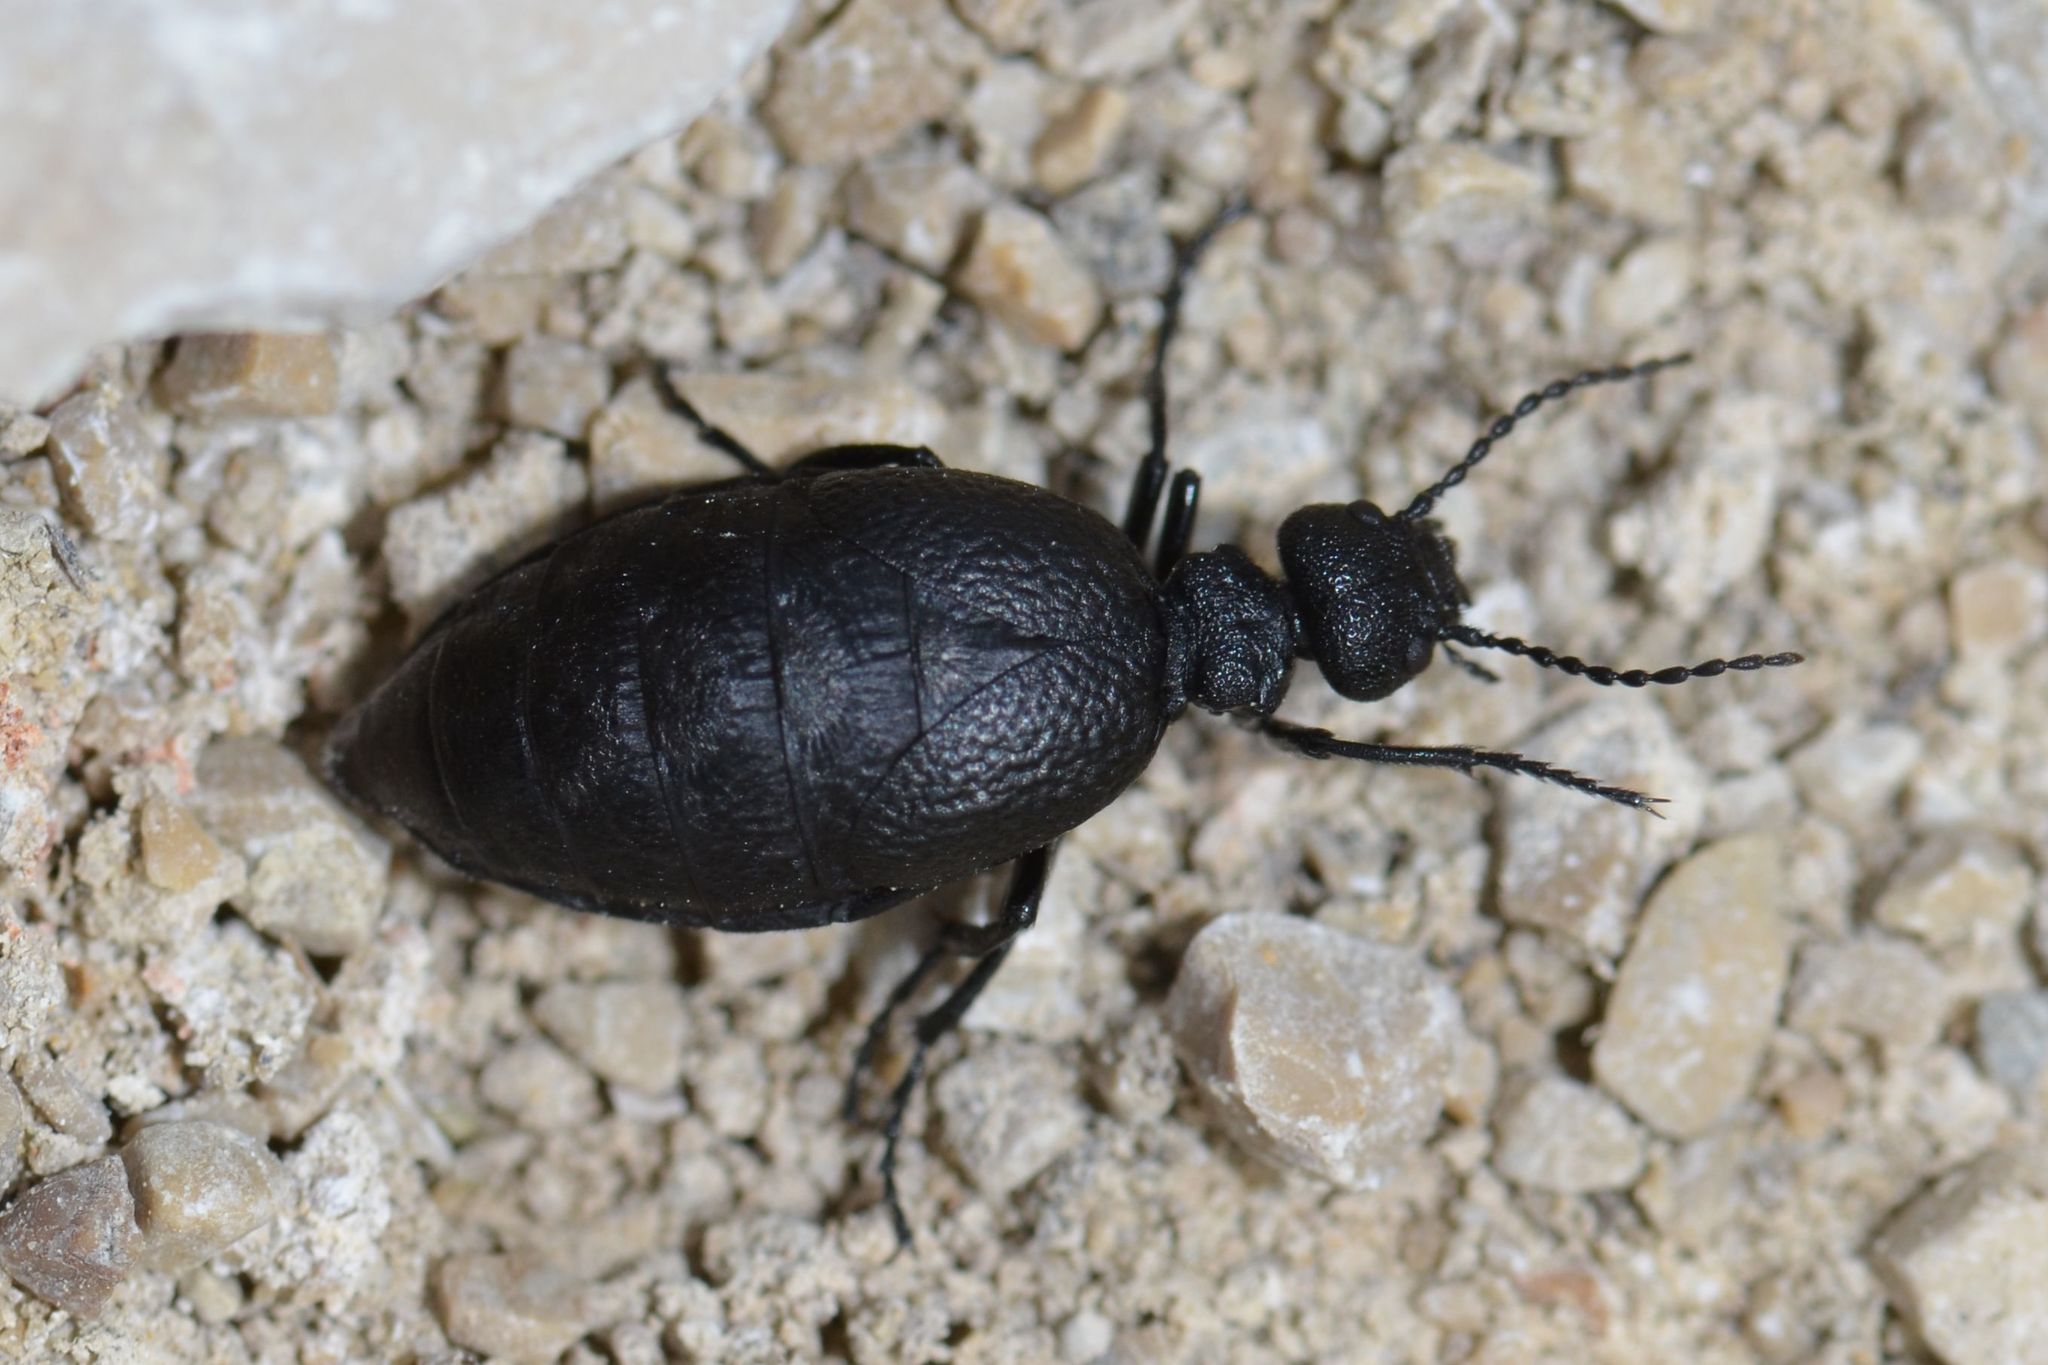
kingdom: Animalia
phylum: Arthropoda
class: Insecta
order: Coleoptera
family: Meloidae
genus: Meloe
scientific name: Meloe rugosus
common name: Rugged oil-beetle
